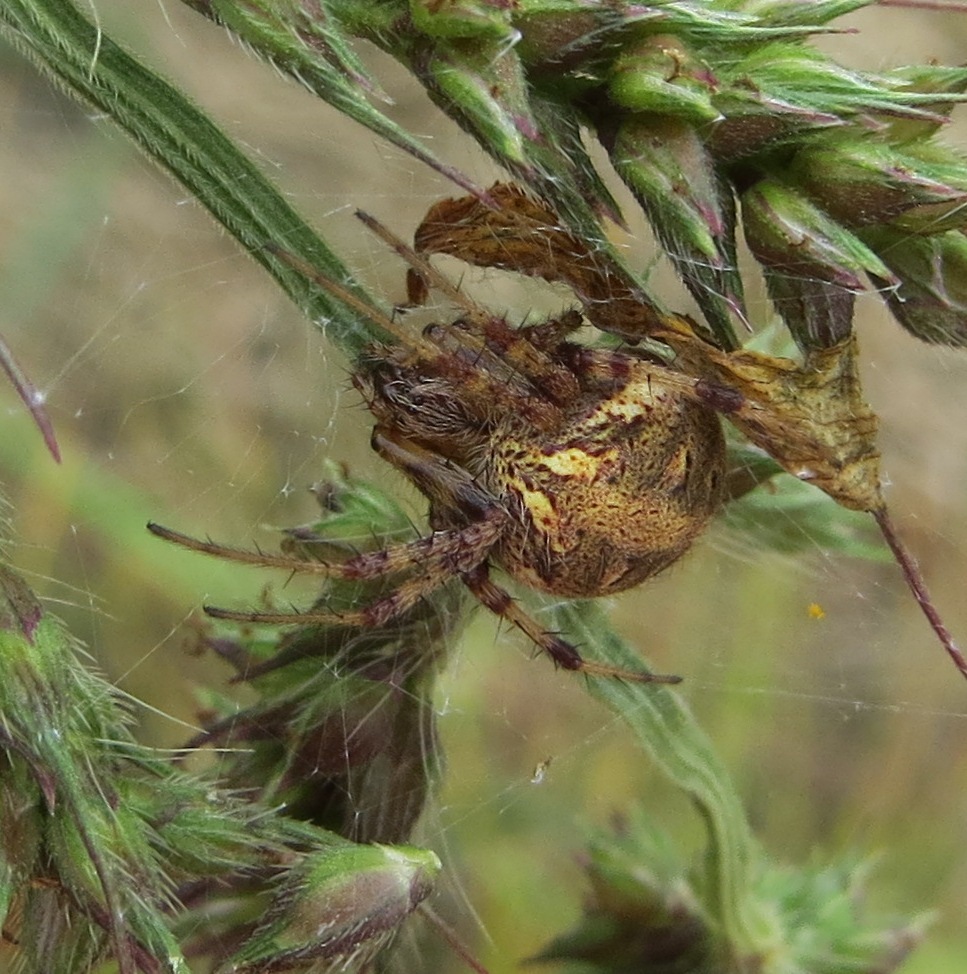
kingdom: Animalia
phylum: Arthropoda
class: Arachnida
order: Araneae
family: Araneidae
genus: Neoscona
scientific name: Neoscona arabesca
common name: Orb weavers
